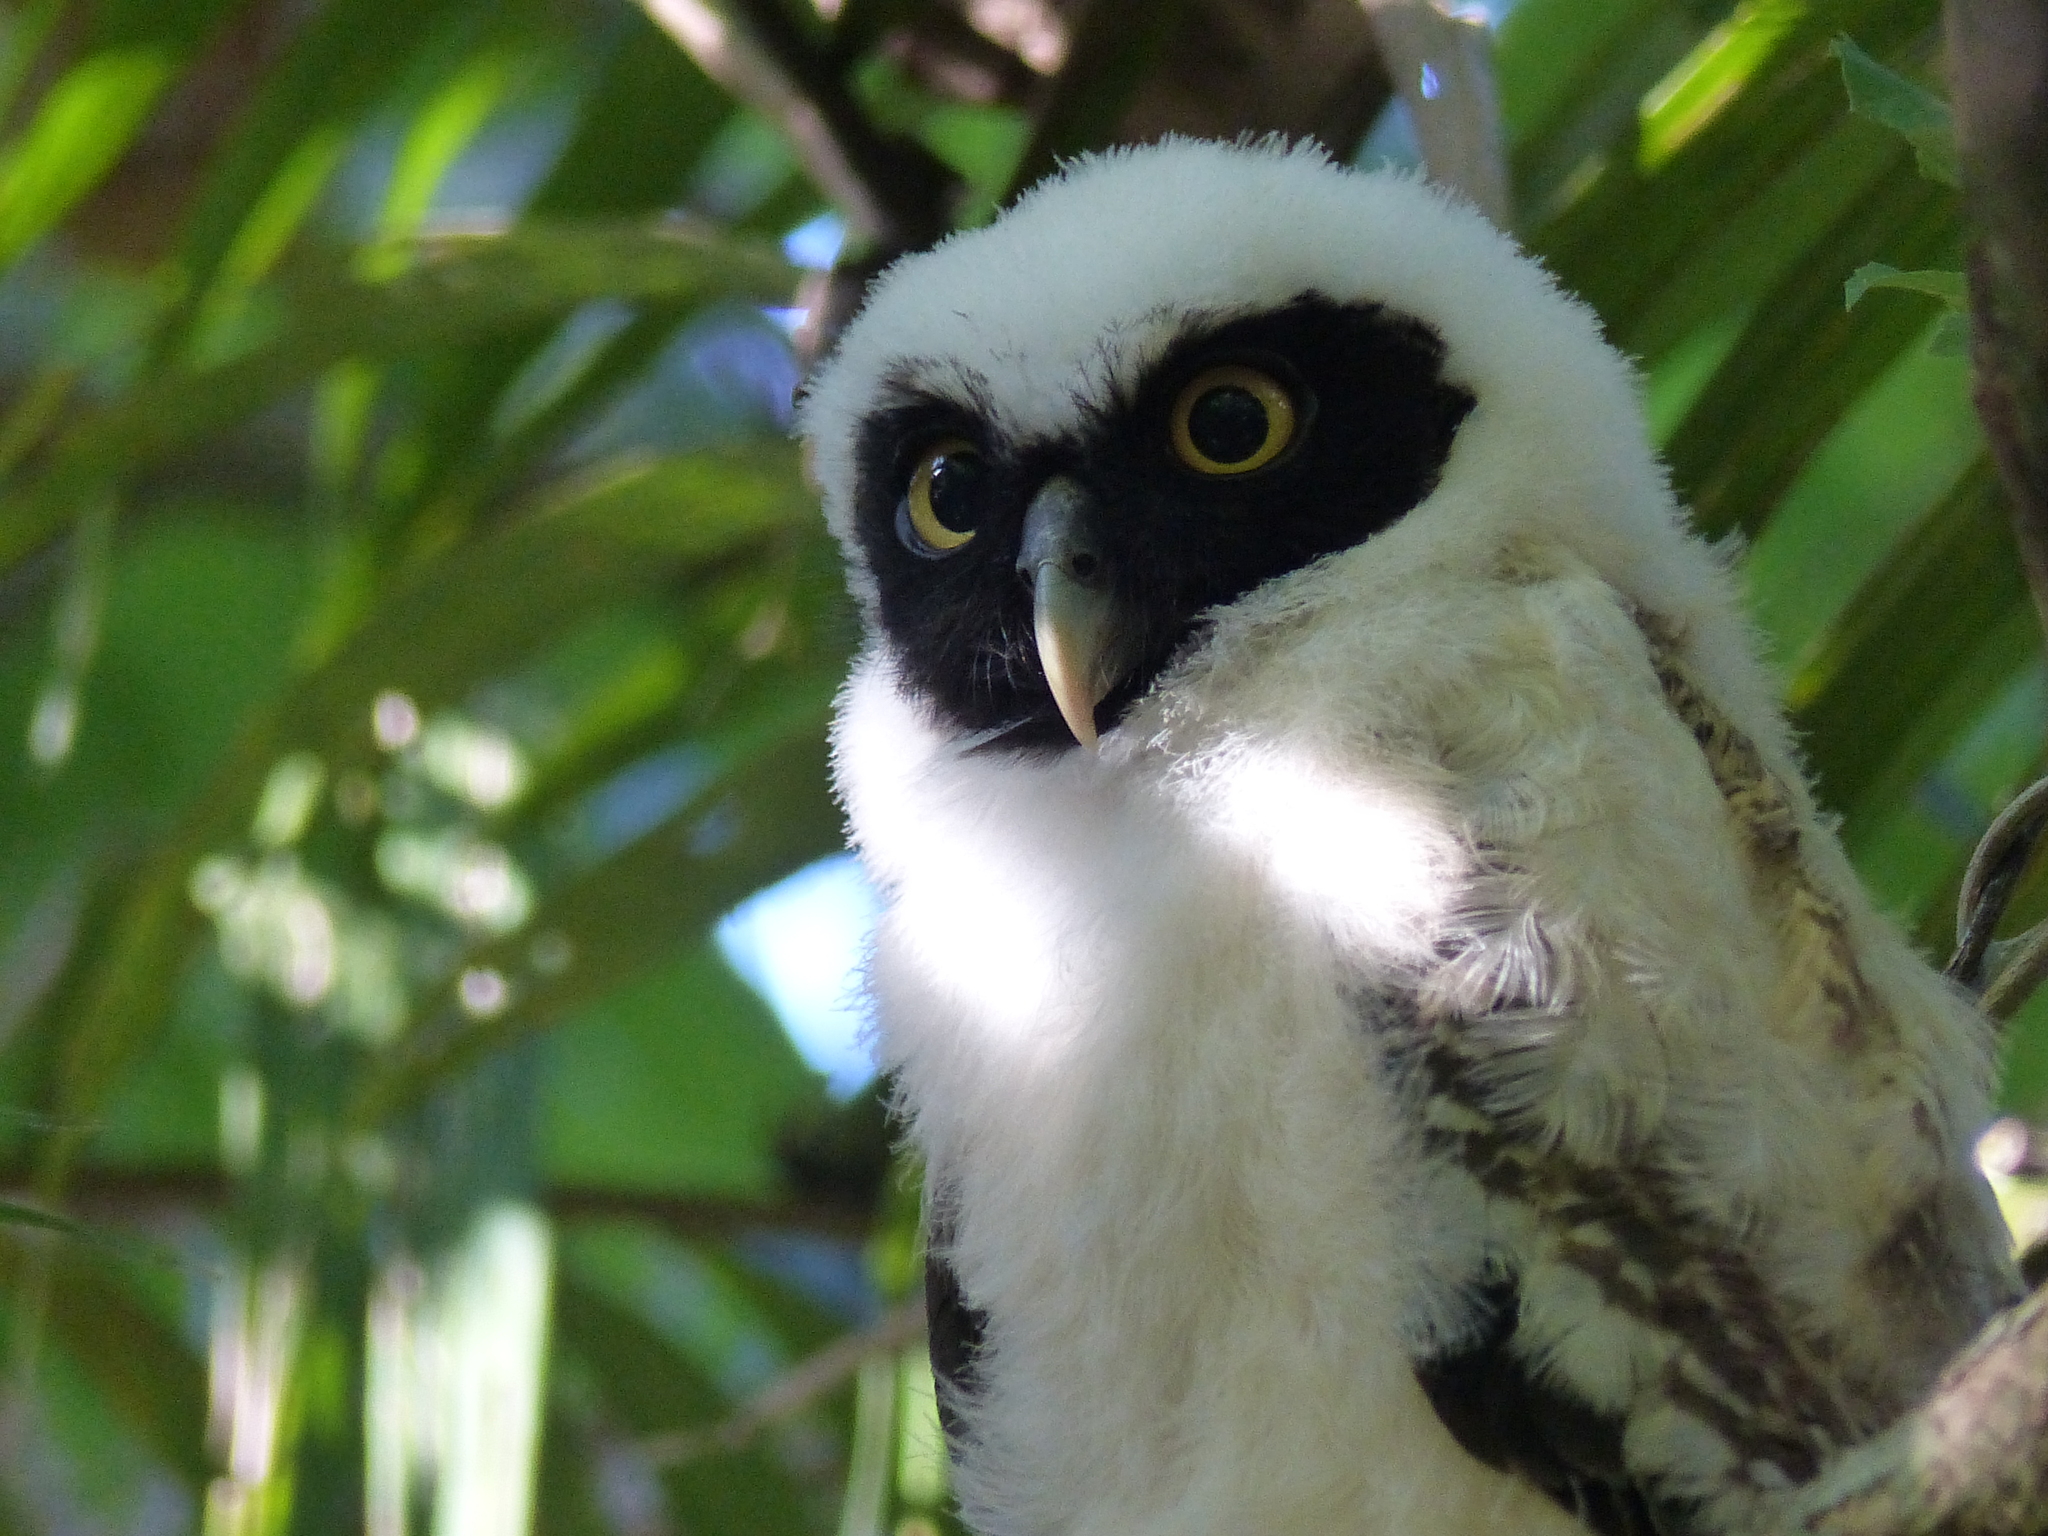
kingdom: Animalia
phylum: Chordata
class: Aves
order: Strigiformes
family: Strigidae
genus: Pulsatrix
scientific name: Pulsatrix perspicillata
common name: Spectacled owl
